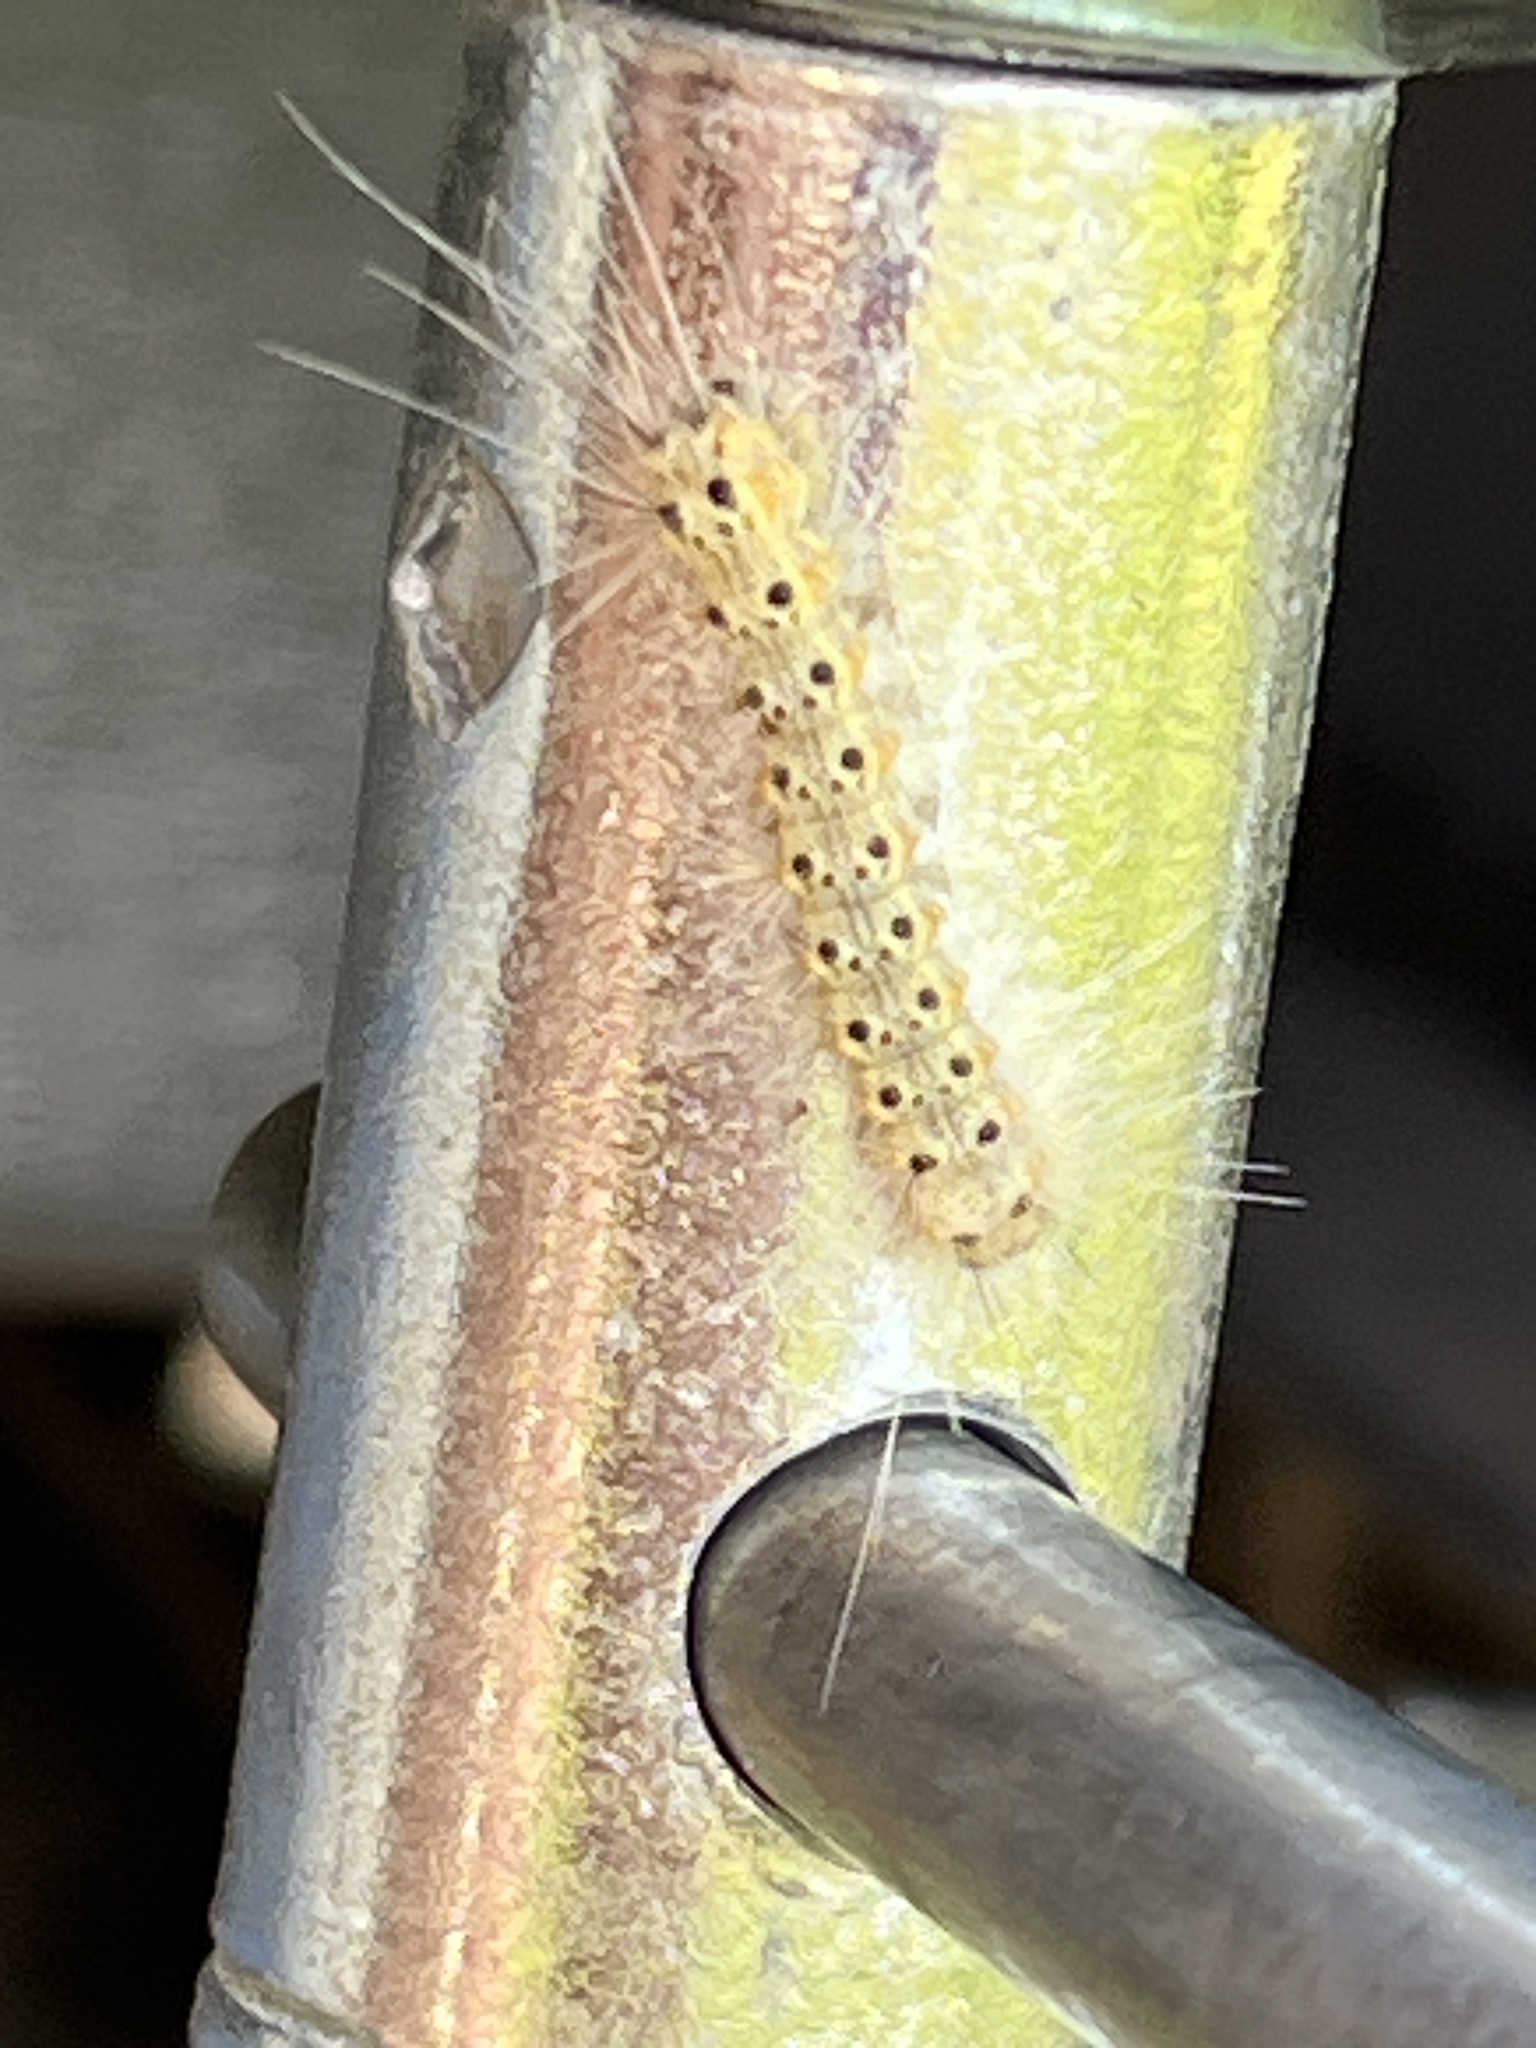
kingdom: Animalia
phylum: Arthropoda
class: Insecta
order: Lepidoptera
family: Erebidae
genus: Hyphantria
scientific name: Hyphantria cunea
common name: American white moth
